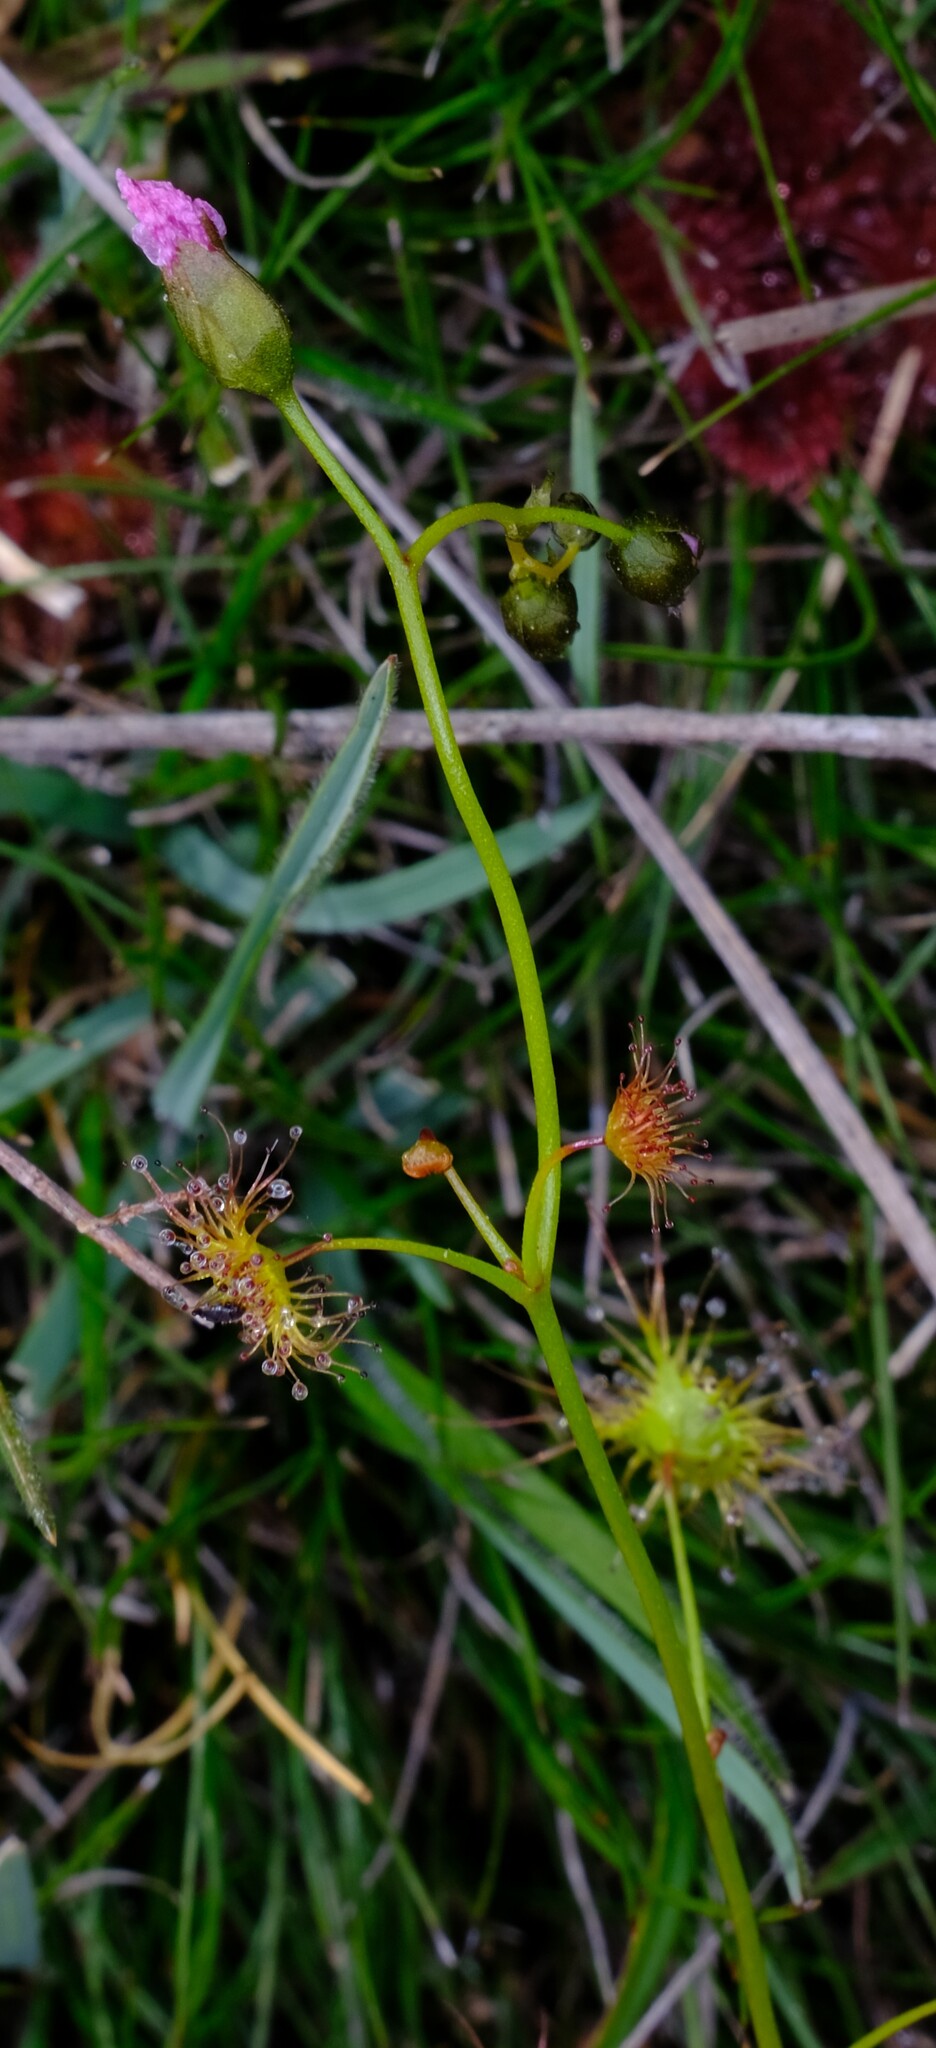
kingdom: Plantae
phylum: Tracheophyta
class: Magnoliopsida
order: Caryophyllales
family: Droseraceae
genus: Drosera
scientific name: Drosera peltata
